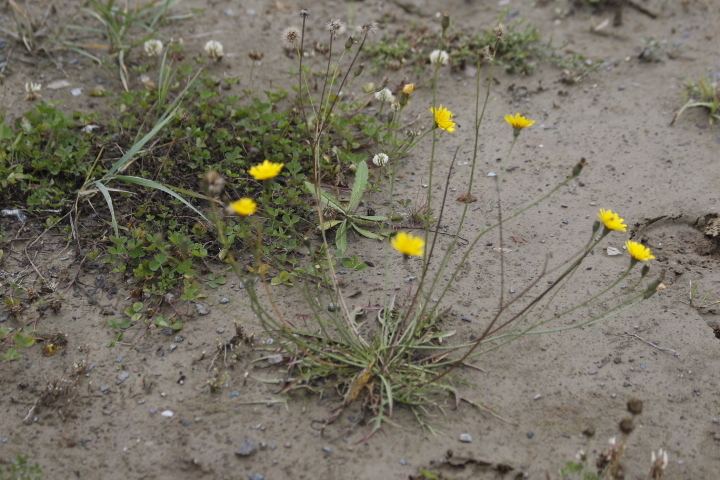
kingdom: Plantae
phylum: Tracheophyta
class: Magnoliopsida
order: Asterales
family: Asteraceae
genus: Scorzoneroides
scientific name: Scorzoneroides autumnalis
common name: Autumn hawkbit
